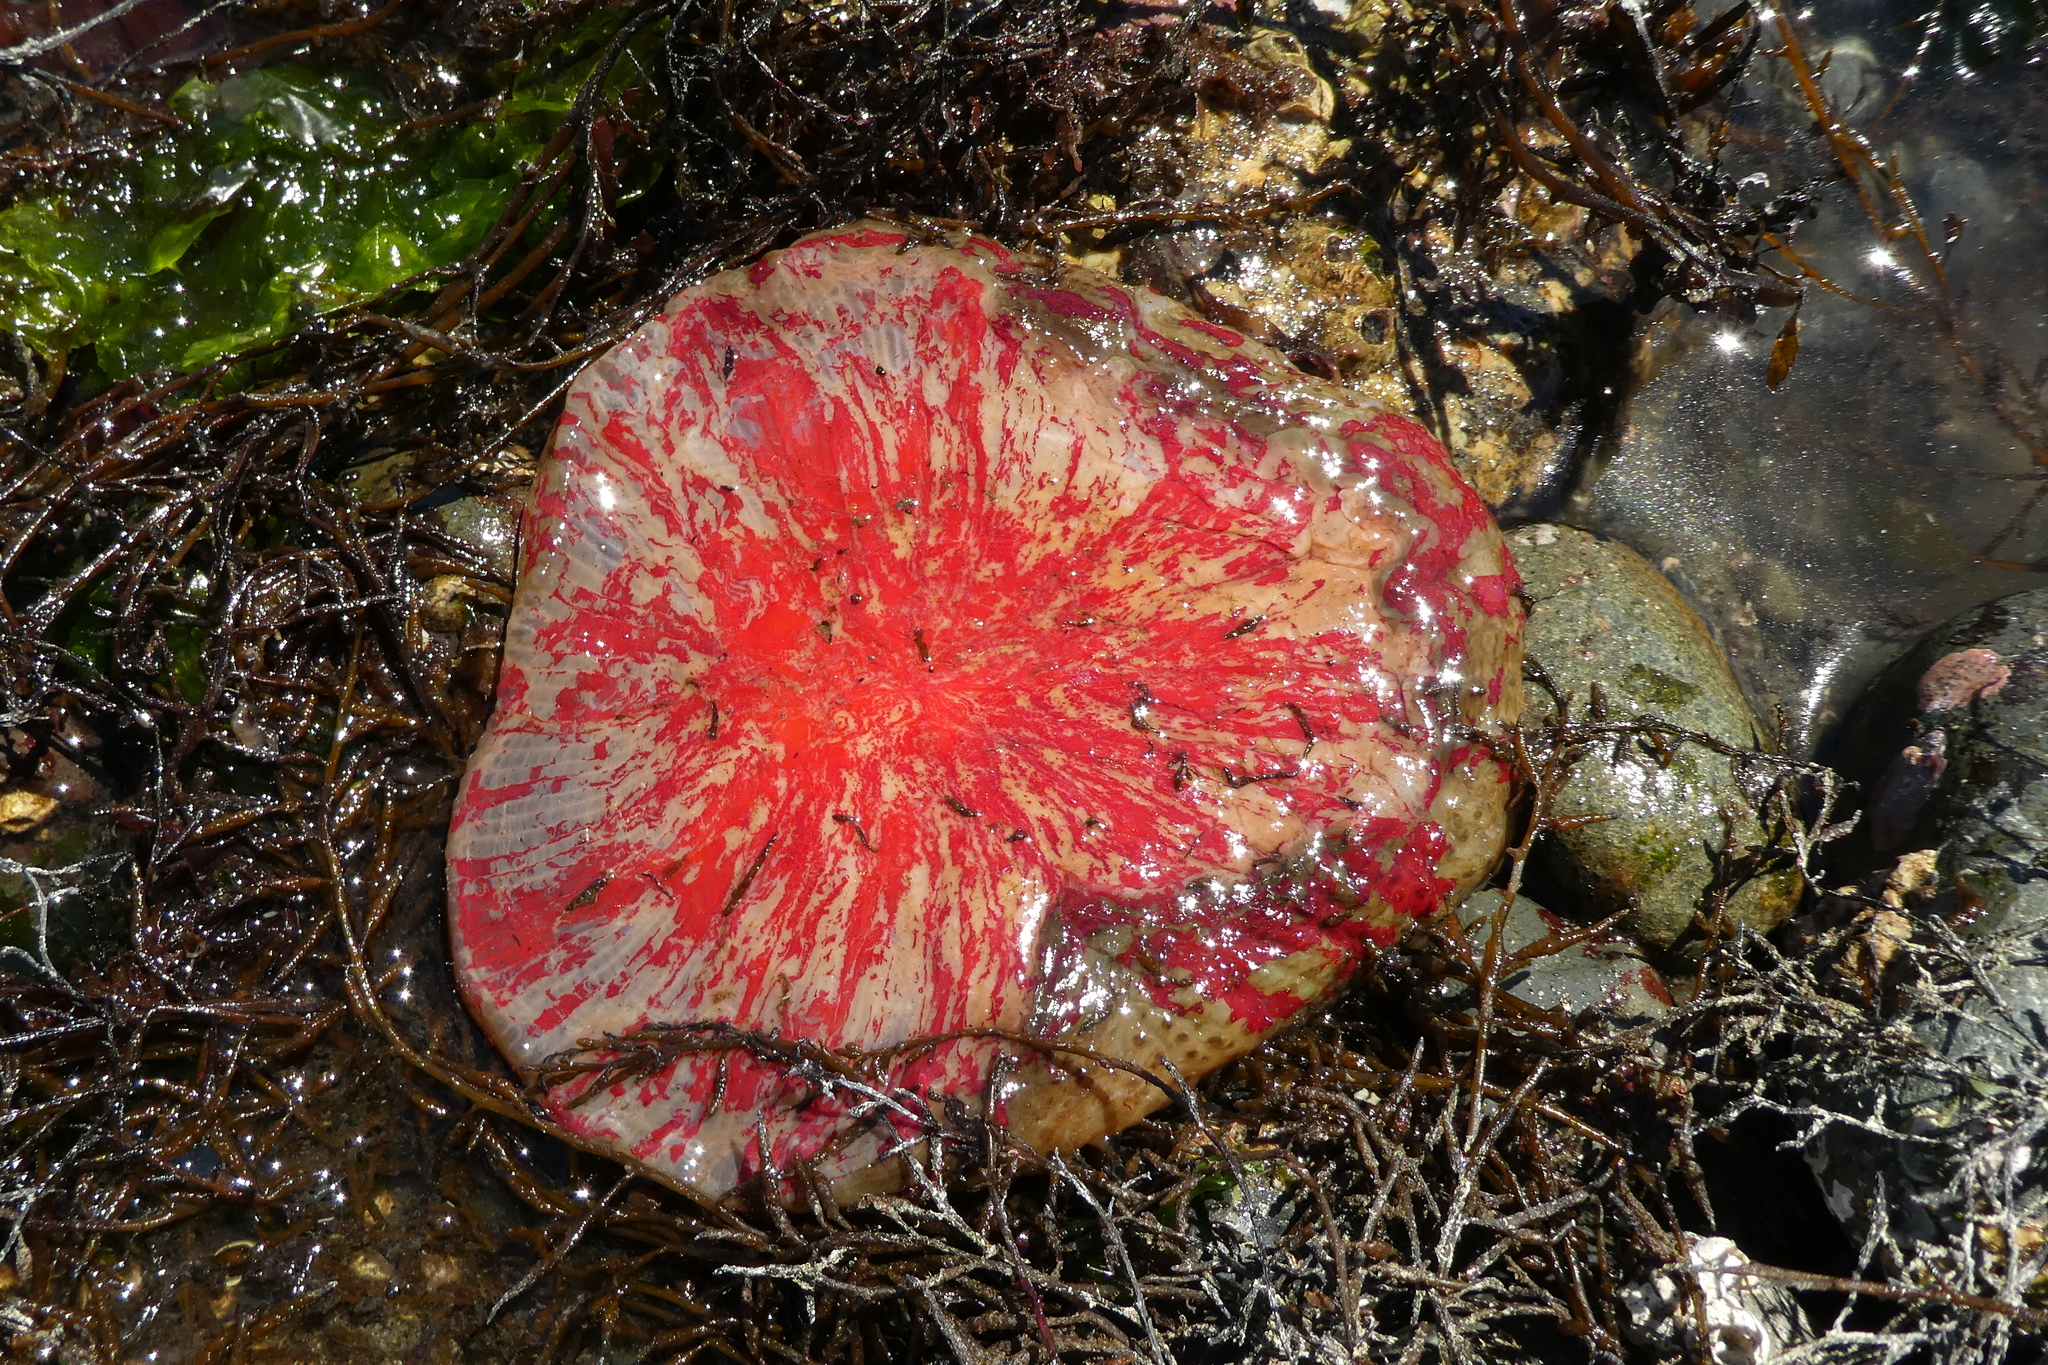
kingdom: Animalia
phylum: Cnidaria
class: Anthozoa
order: Actiniaria
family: Actiniidae
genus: Urticina
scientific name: Urticina grebelnyi
